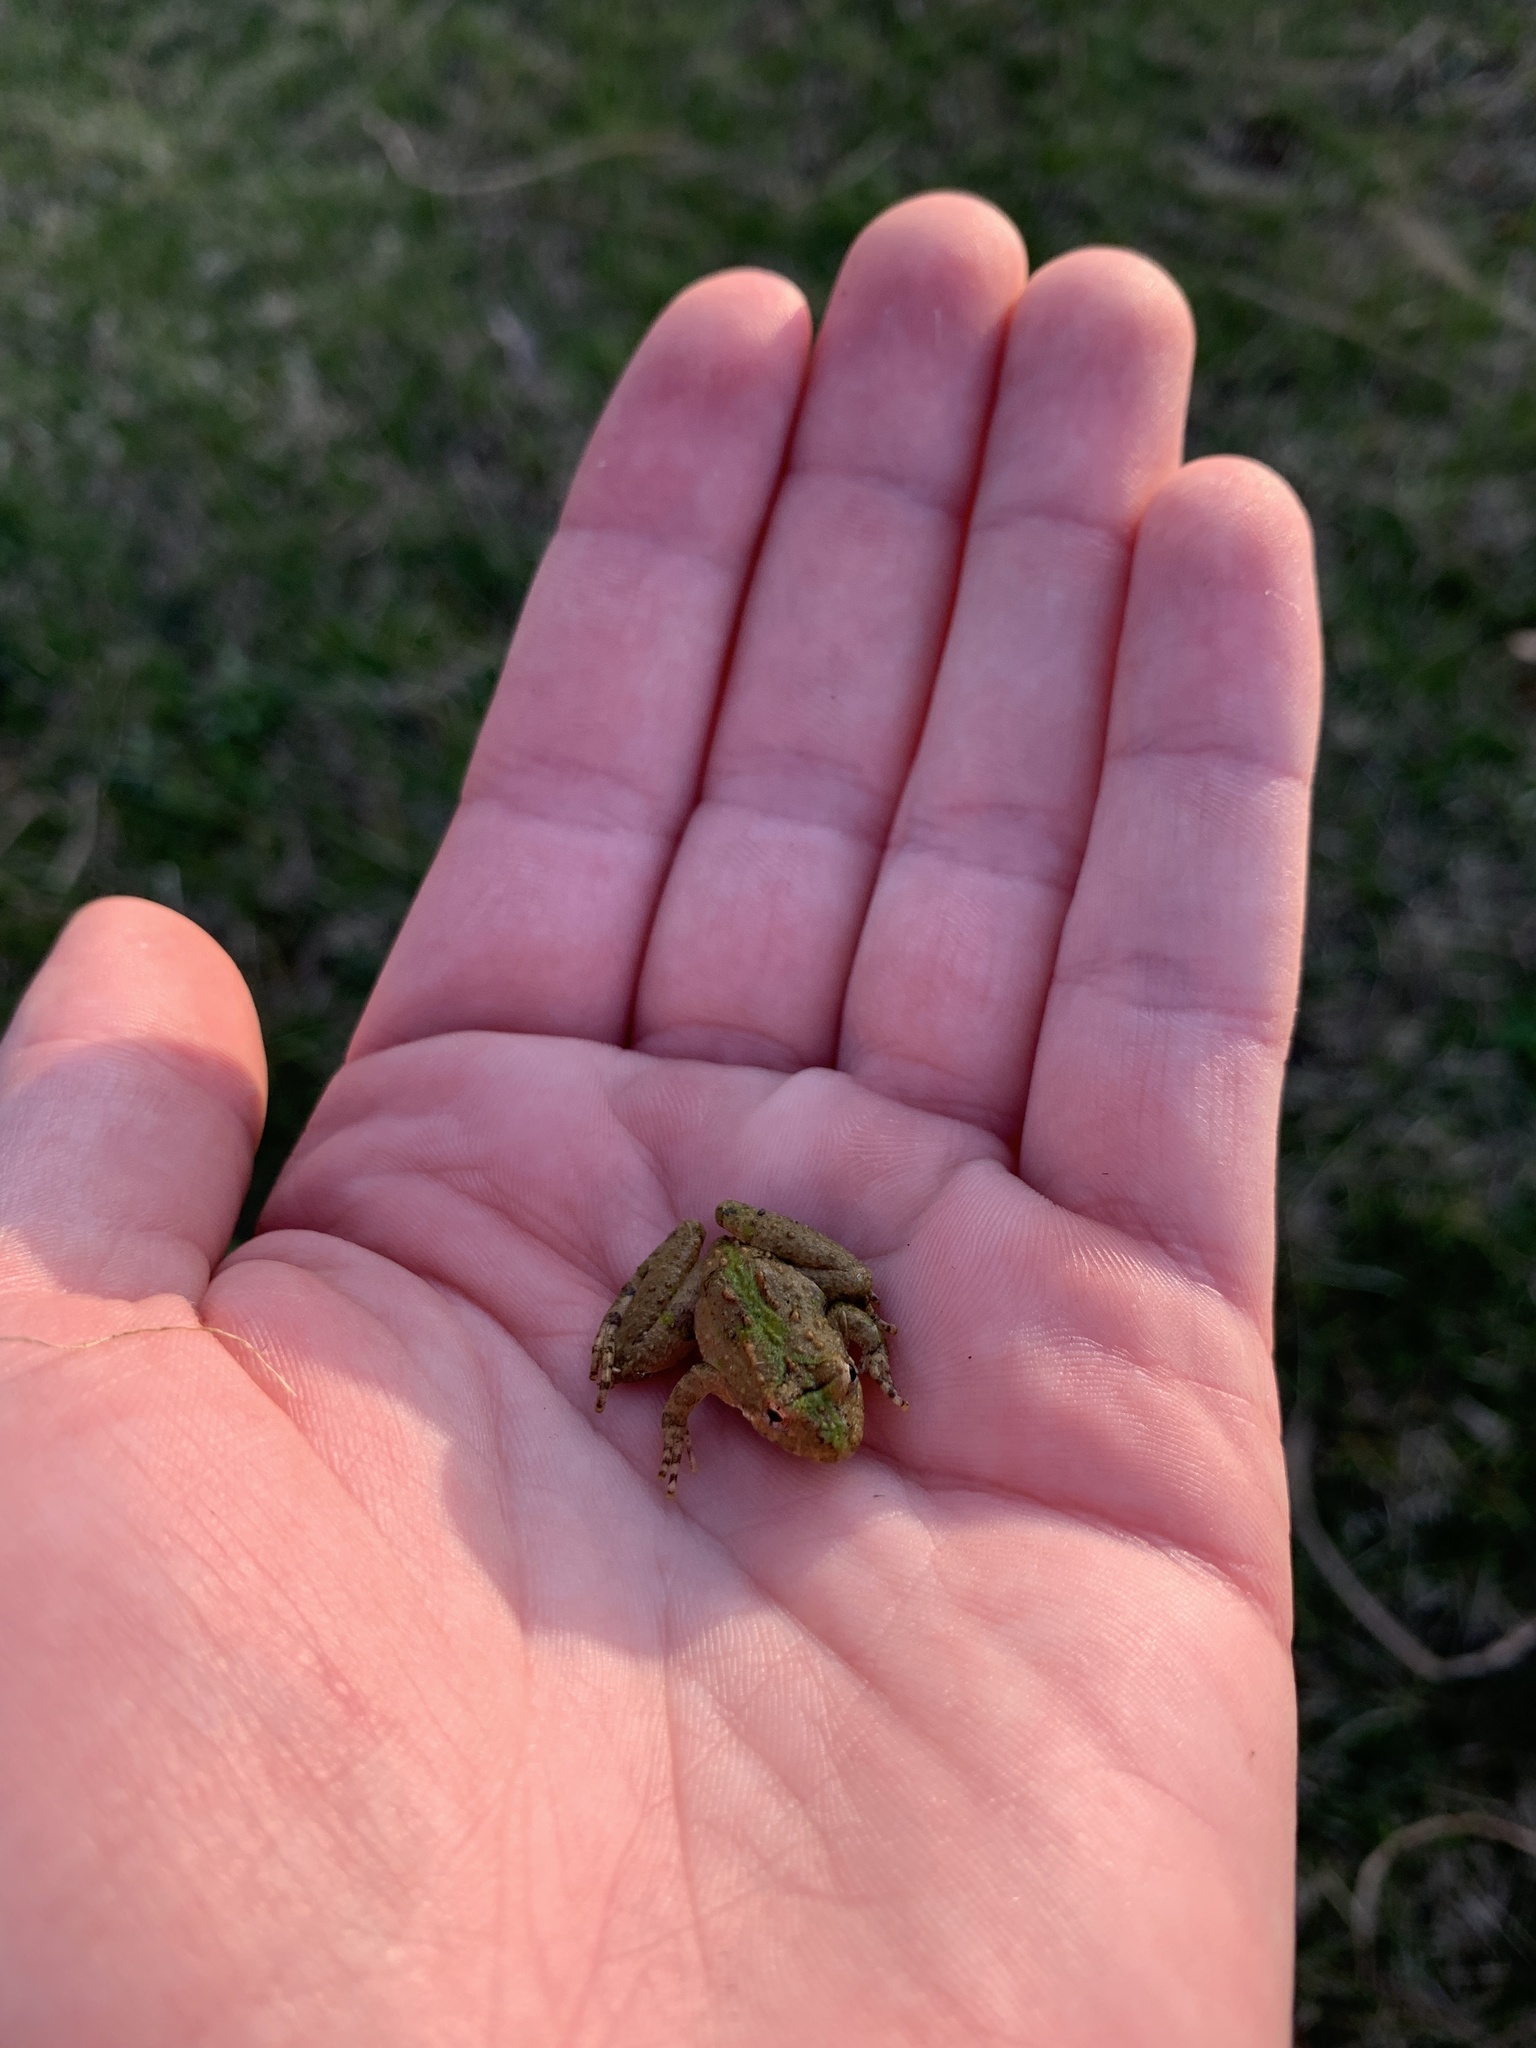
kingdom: Animalia
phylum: Chordata
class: Amphibia
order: Anura
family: Hylidae
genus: Acris
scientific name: Acris crepitans
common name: Northern cricket frog
